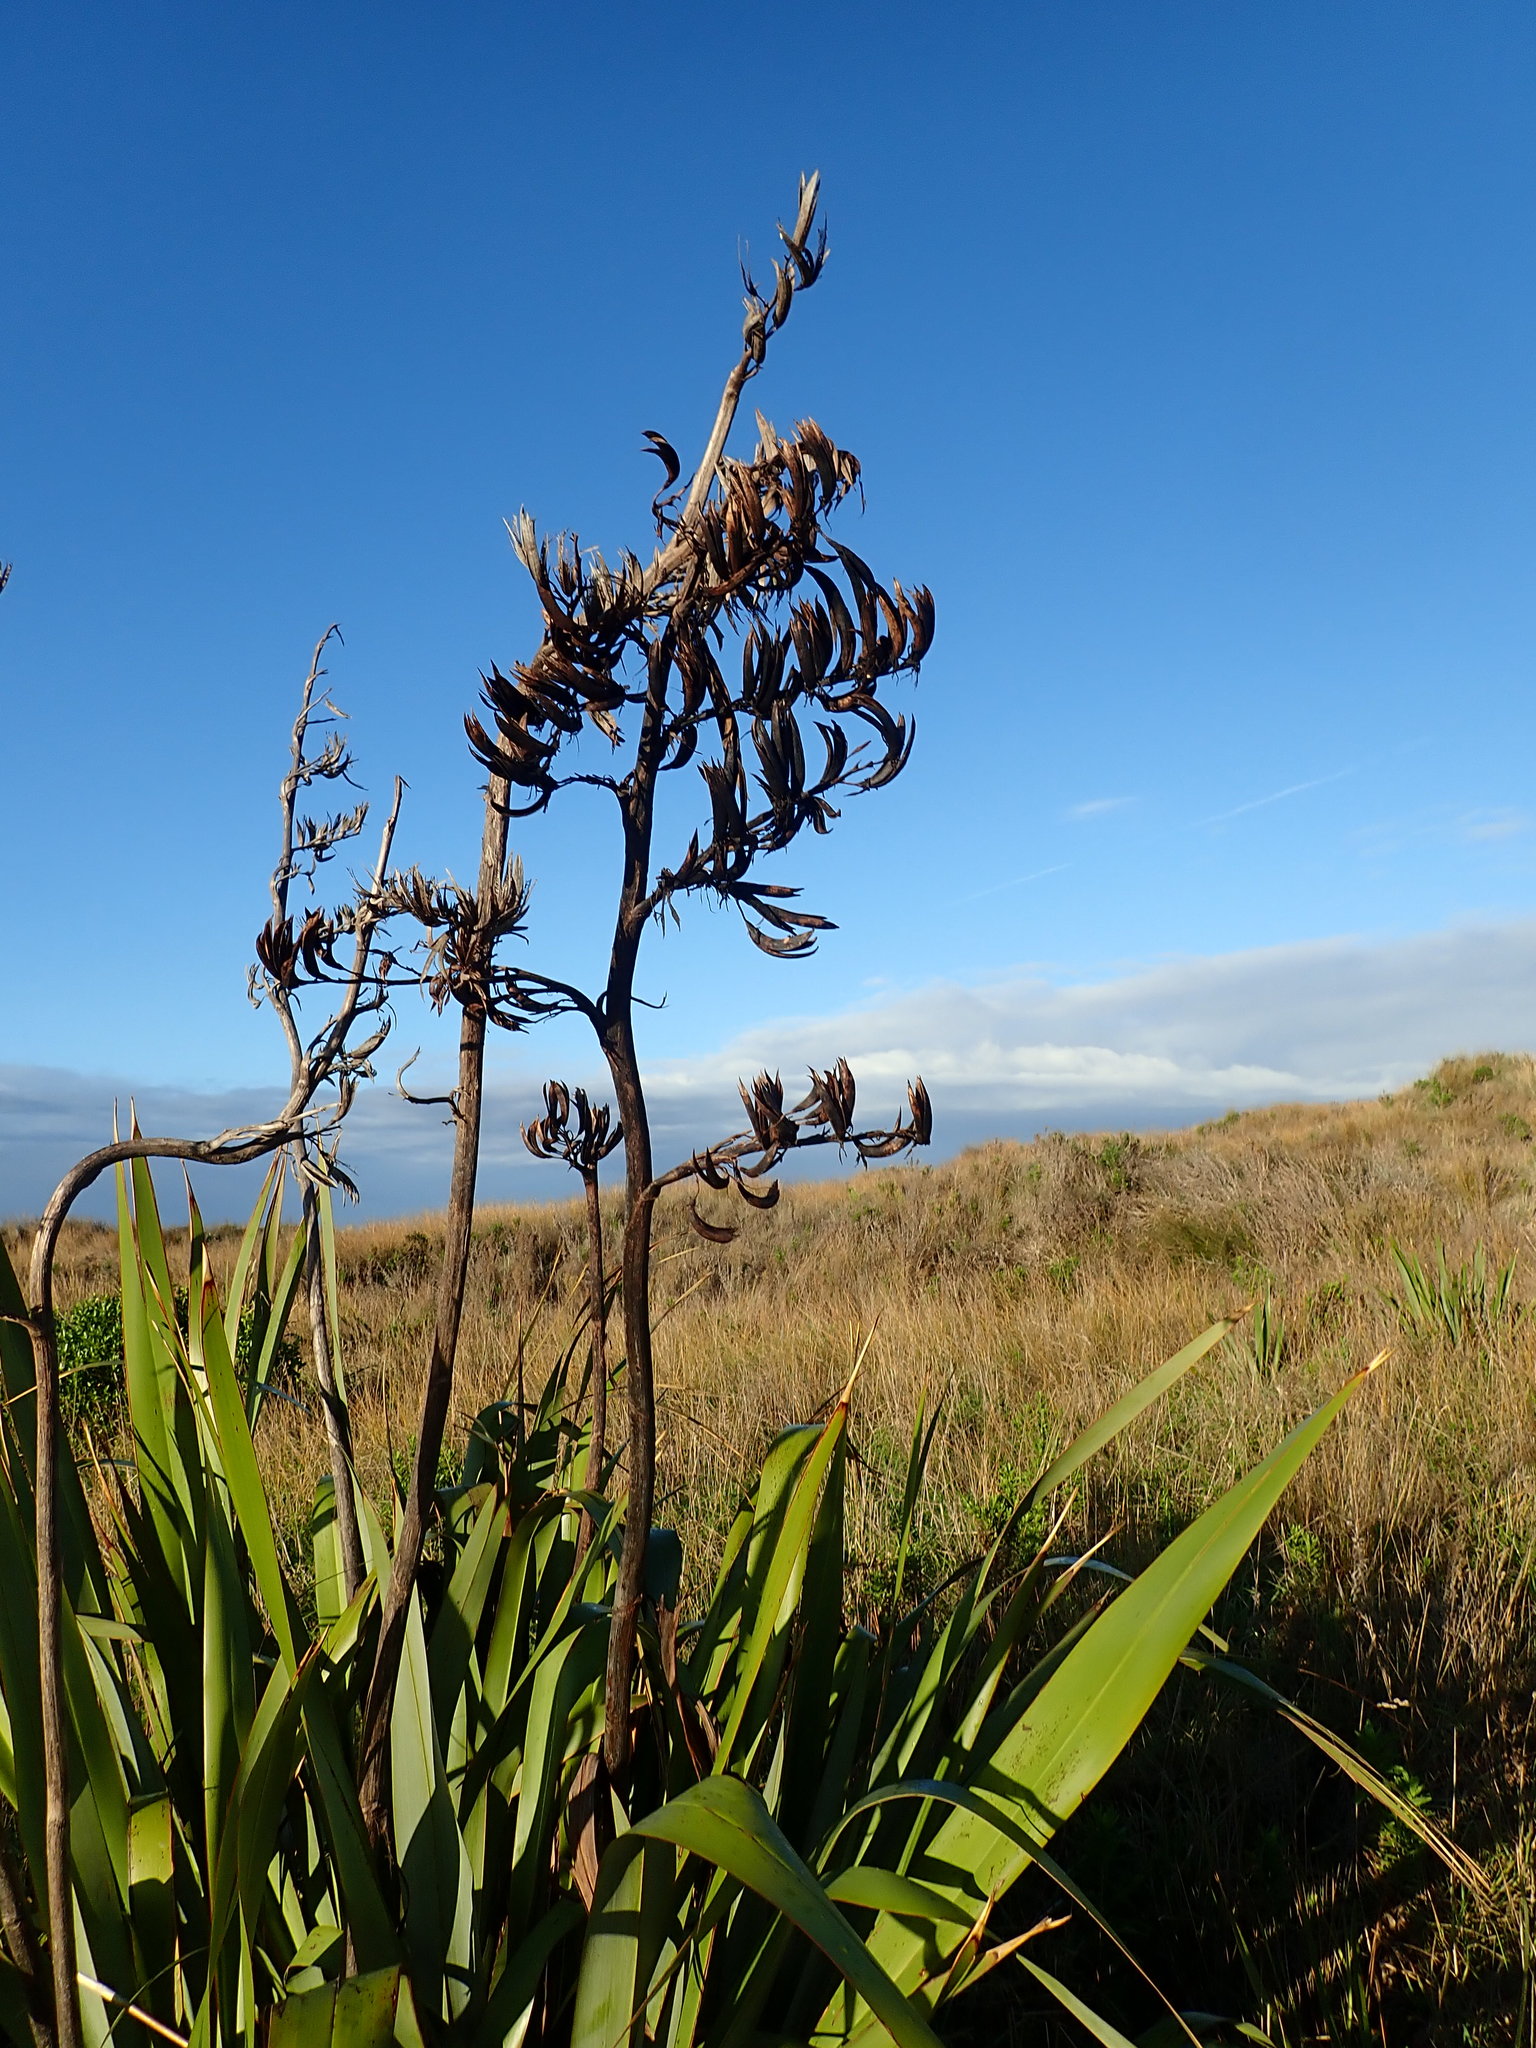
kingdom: Plantae
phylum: Tracheophyta
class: Liliopsida
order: Asparagales
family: Asphodelaceae
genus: Phormium
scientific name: Phormium tenax
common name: New zealand flax
